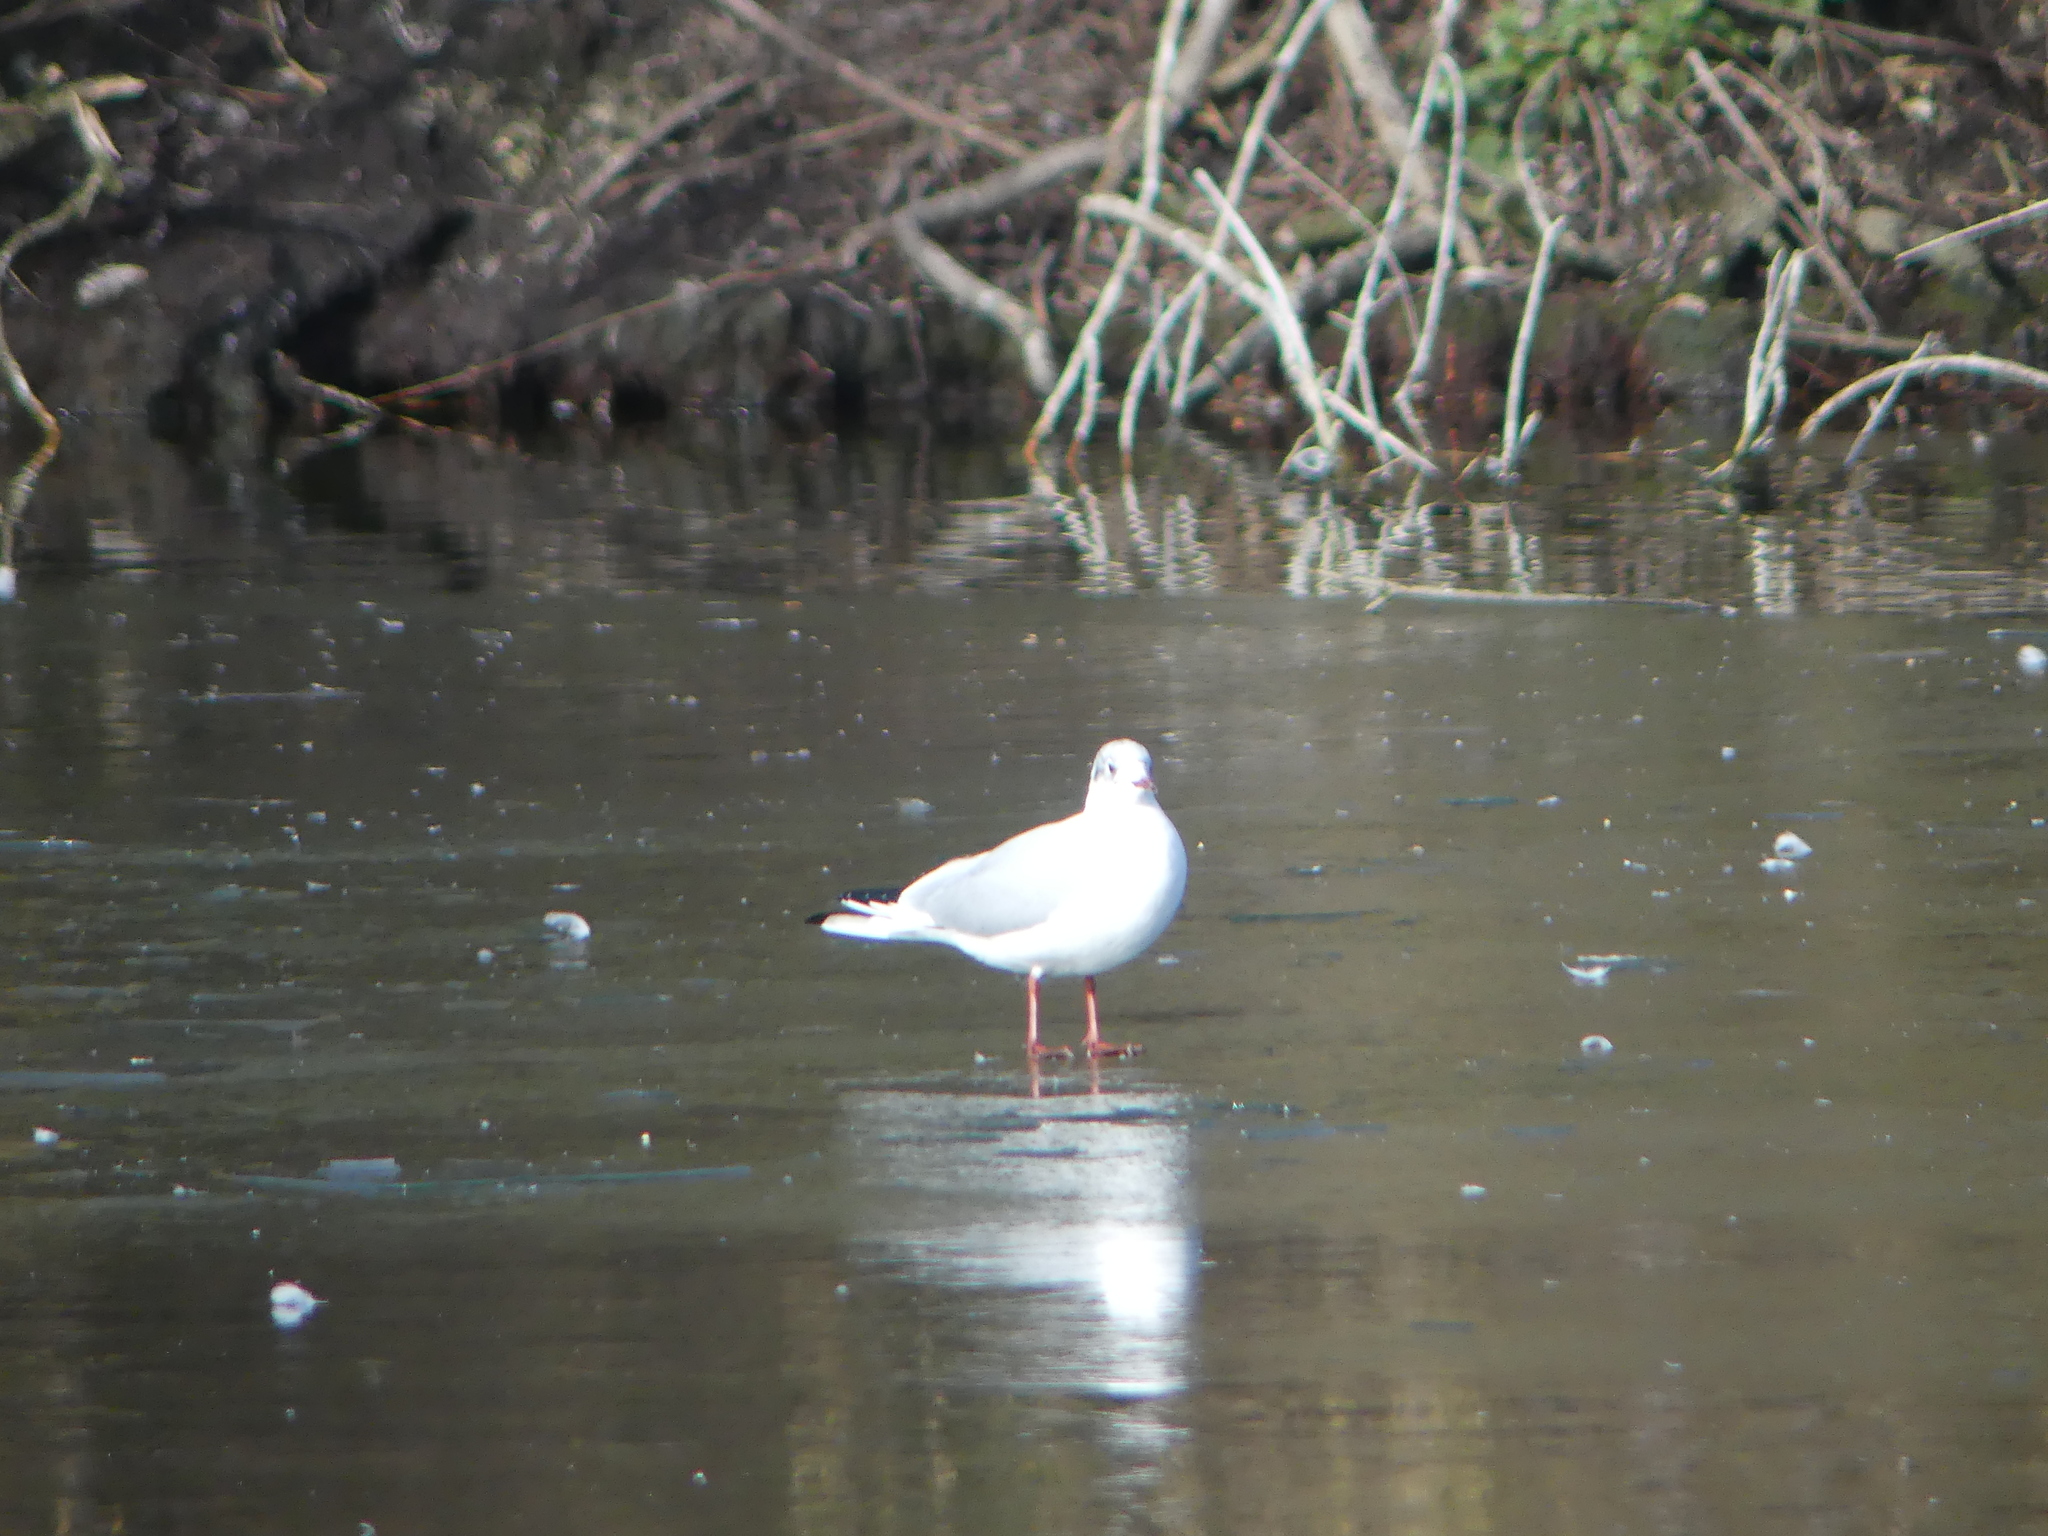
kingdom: Animalia
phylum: Chordata
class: Aves
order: Charadriiformes
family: Laridae
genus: Chroicocephalus
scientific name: Chroicocephalus ridibundus
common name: Black-headed gull
